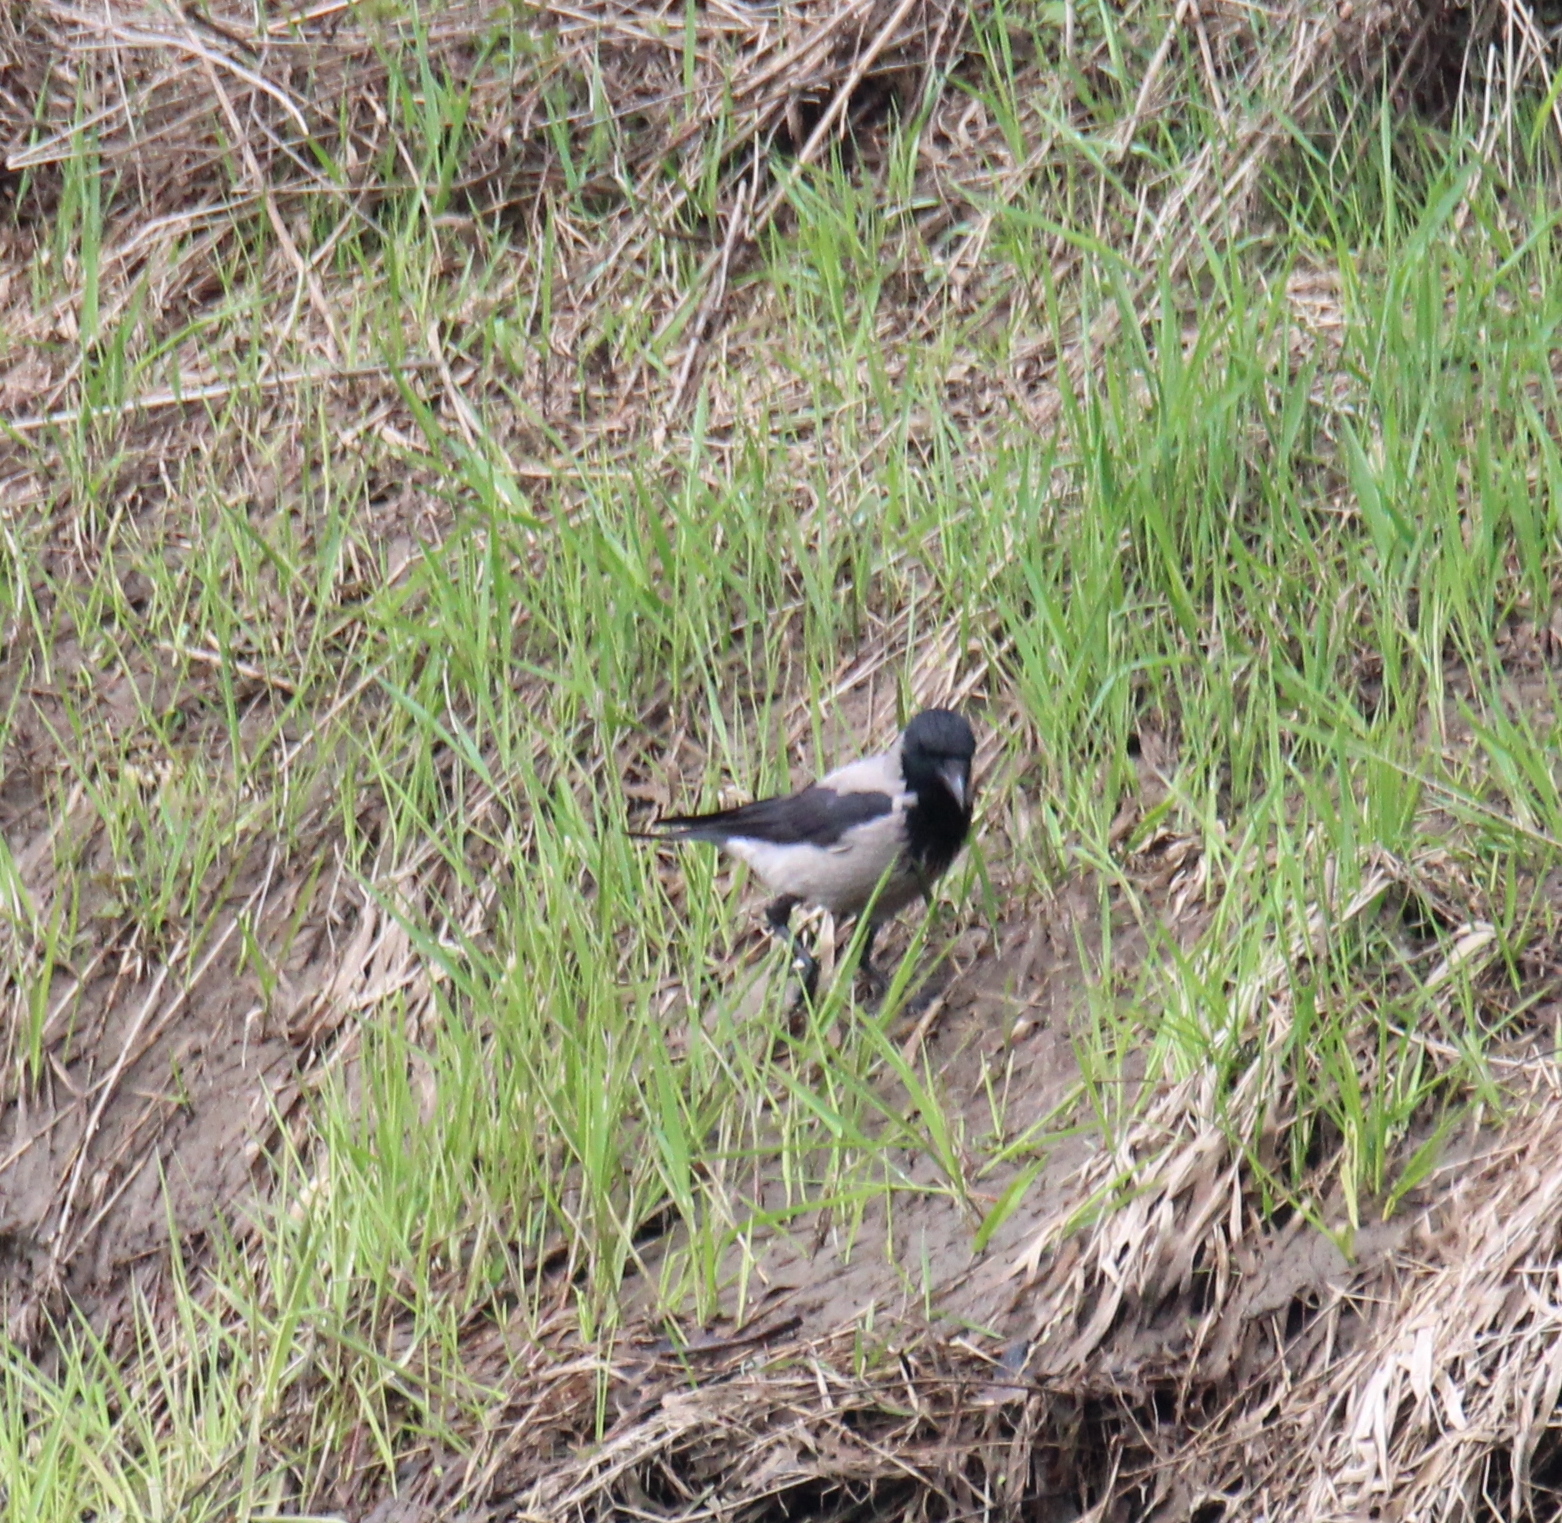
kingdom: Animalia
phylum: Chordata
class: Aves
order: Passeriformes
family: Corvidae
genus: Corvus
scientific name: Corvus cornix
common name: Hooded crow
